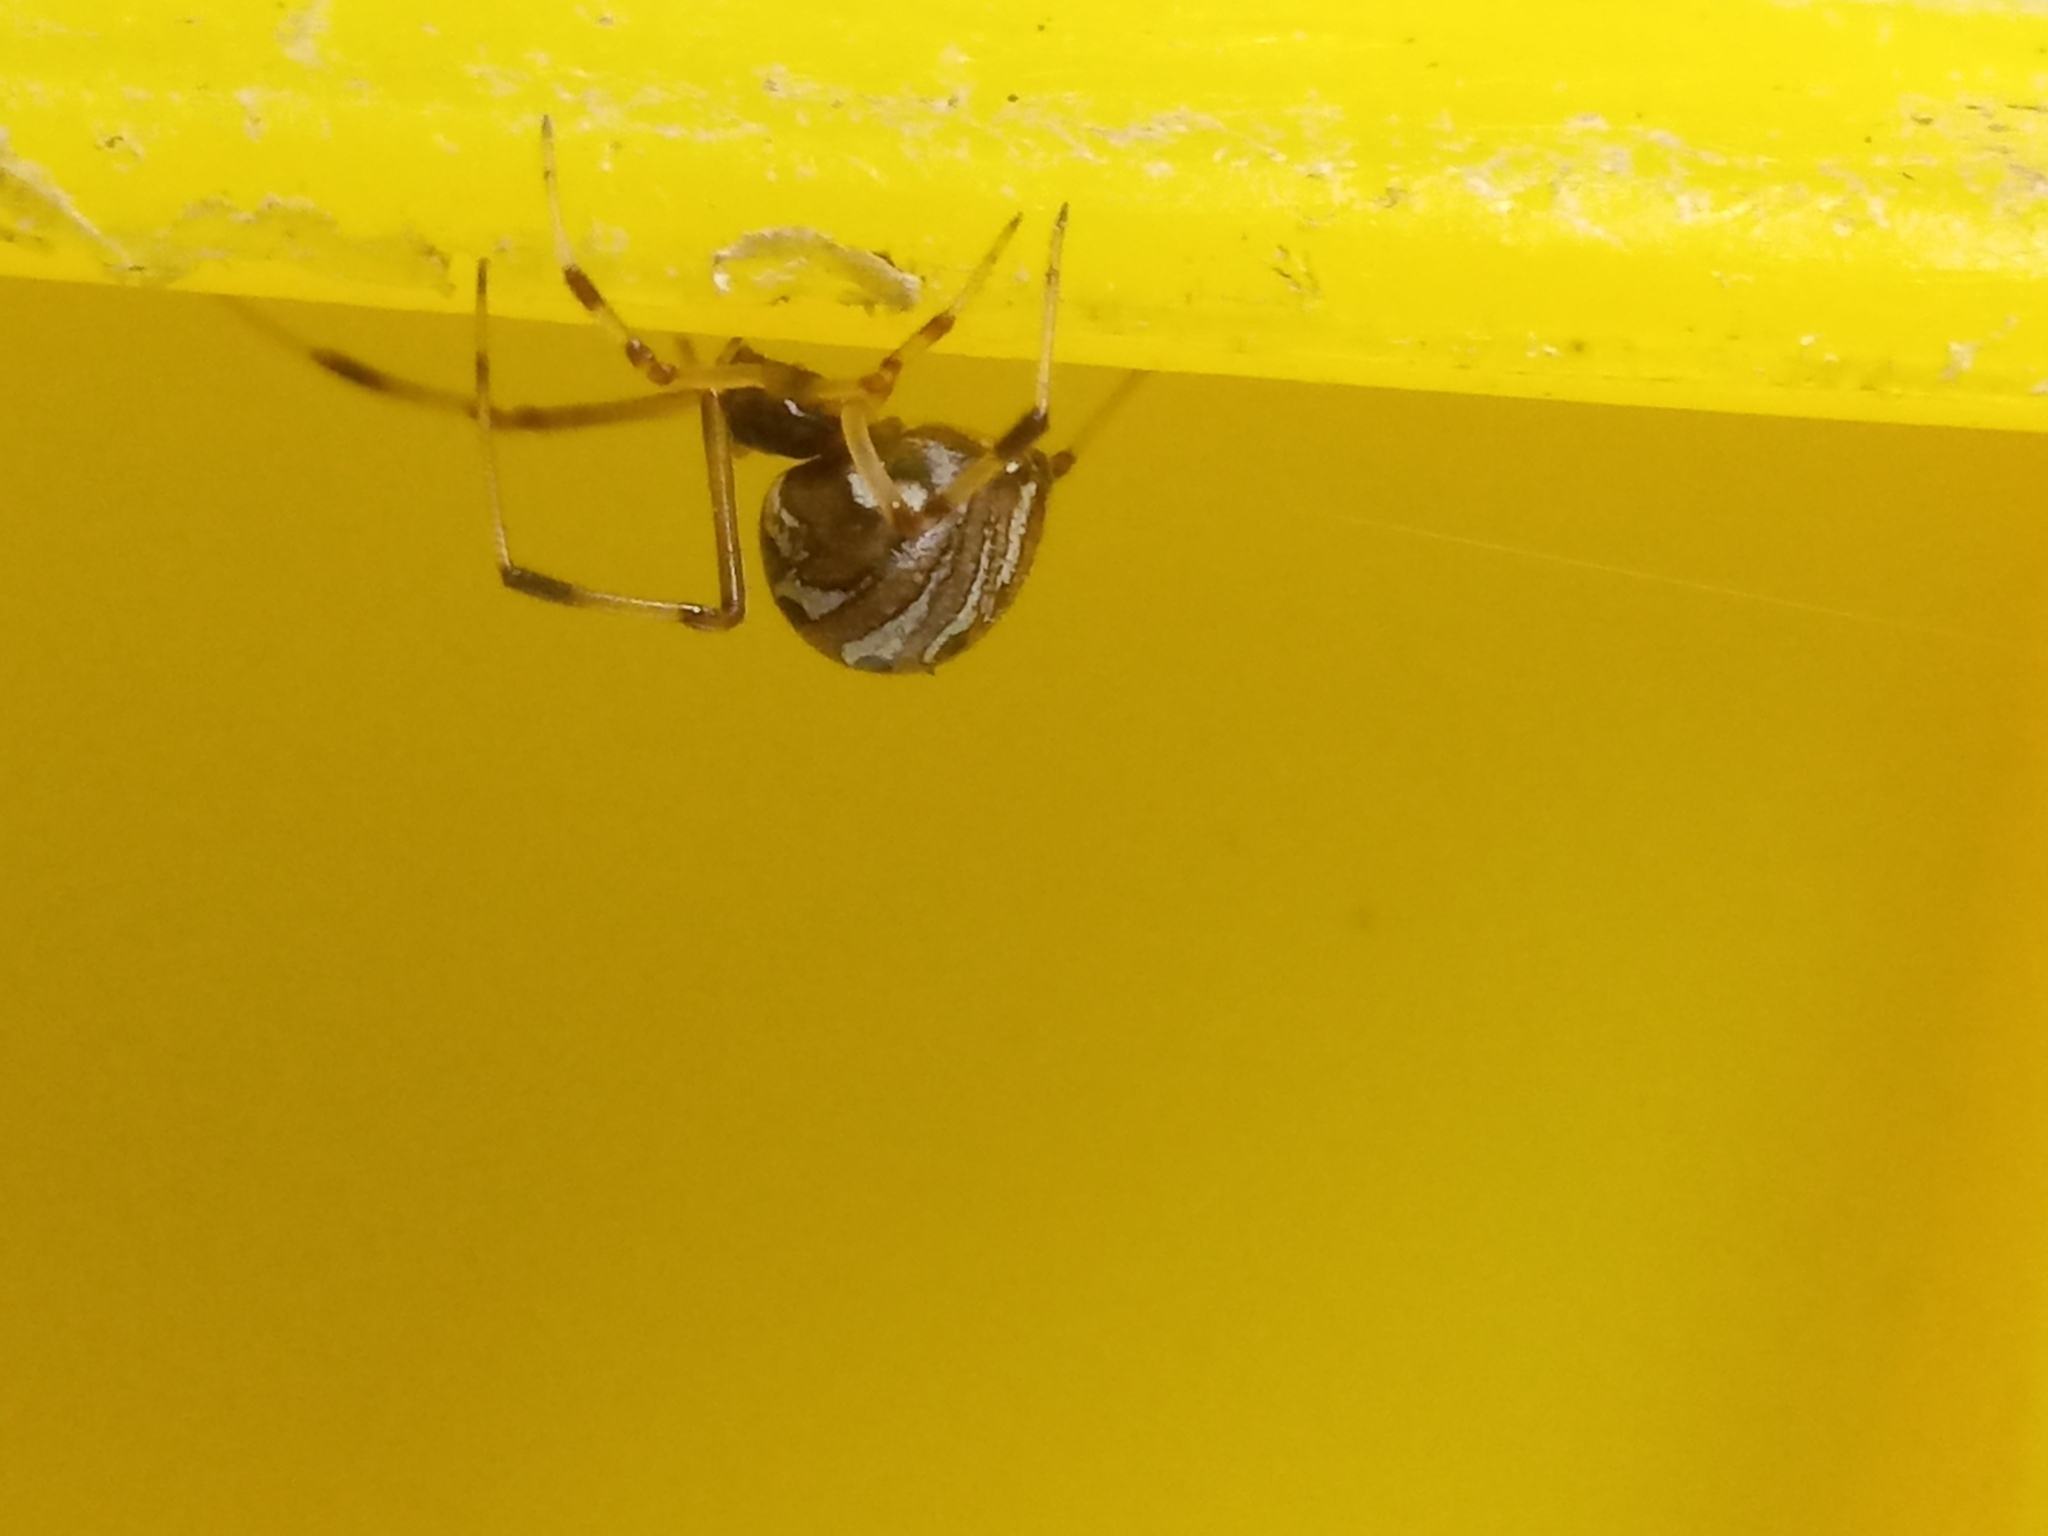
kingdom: Animalia
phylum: Arthropoda
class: Arachnida
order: Araneae
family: Theridiidae
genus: Latrodectus
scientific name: Latrodectus geometricus
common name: Brown widow spider
